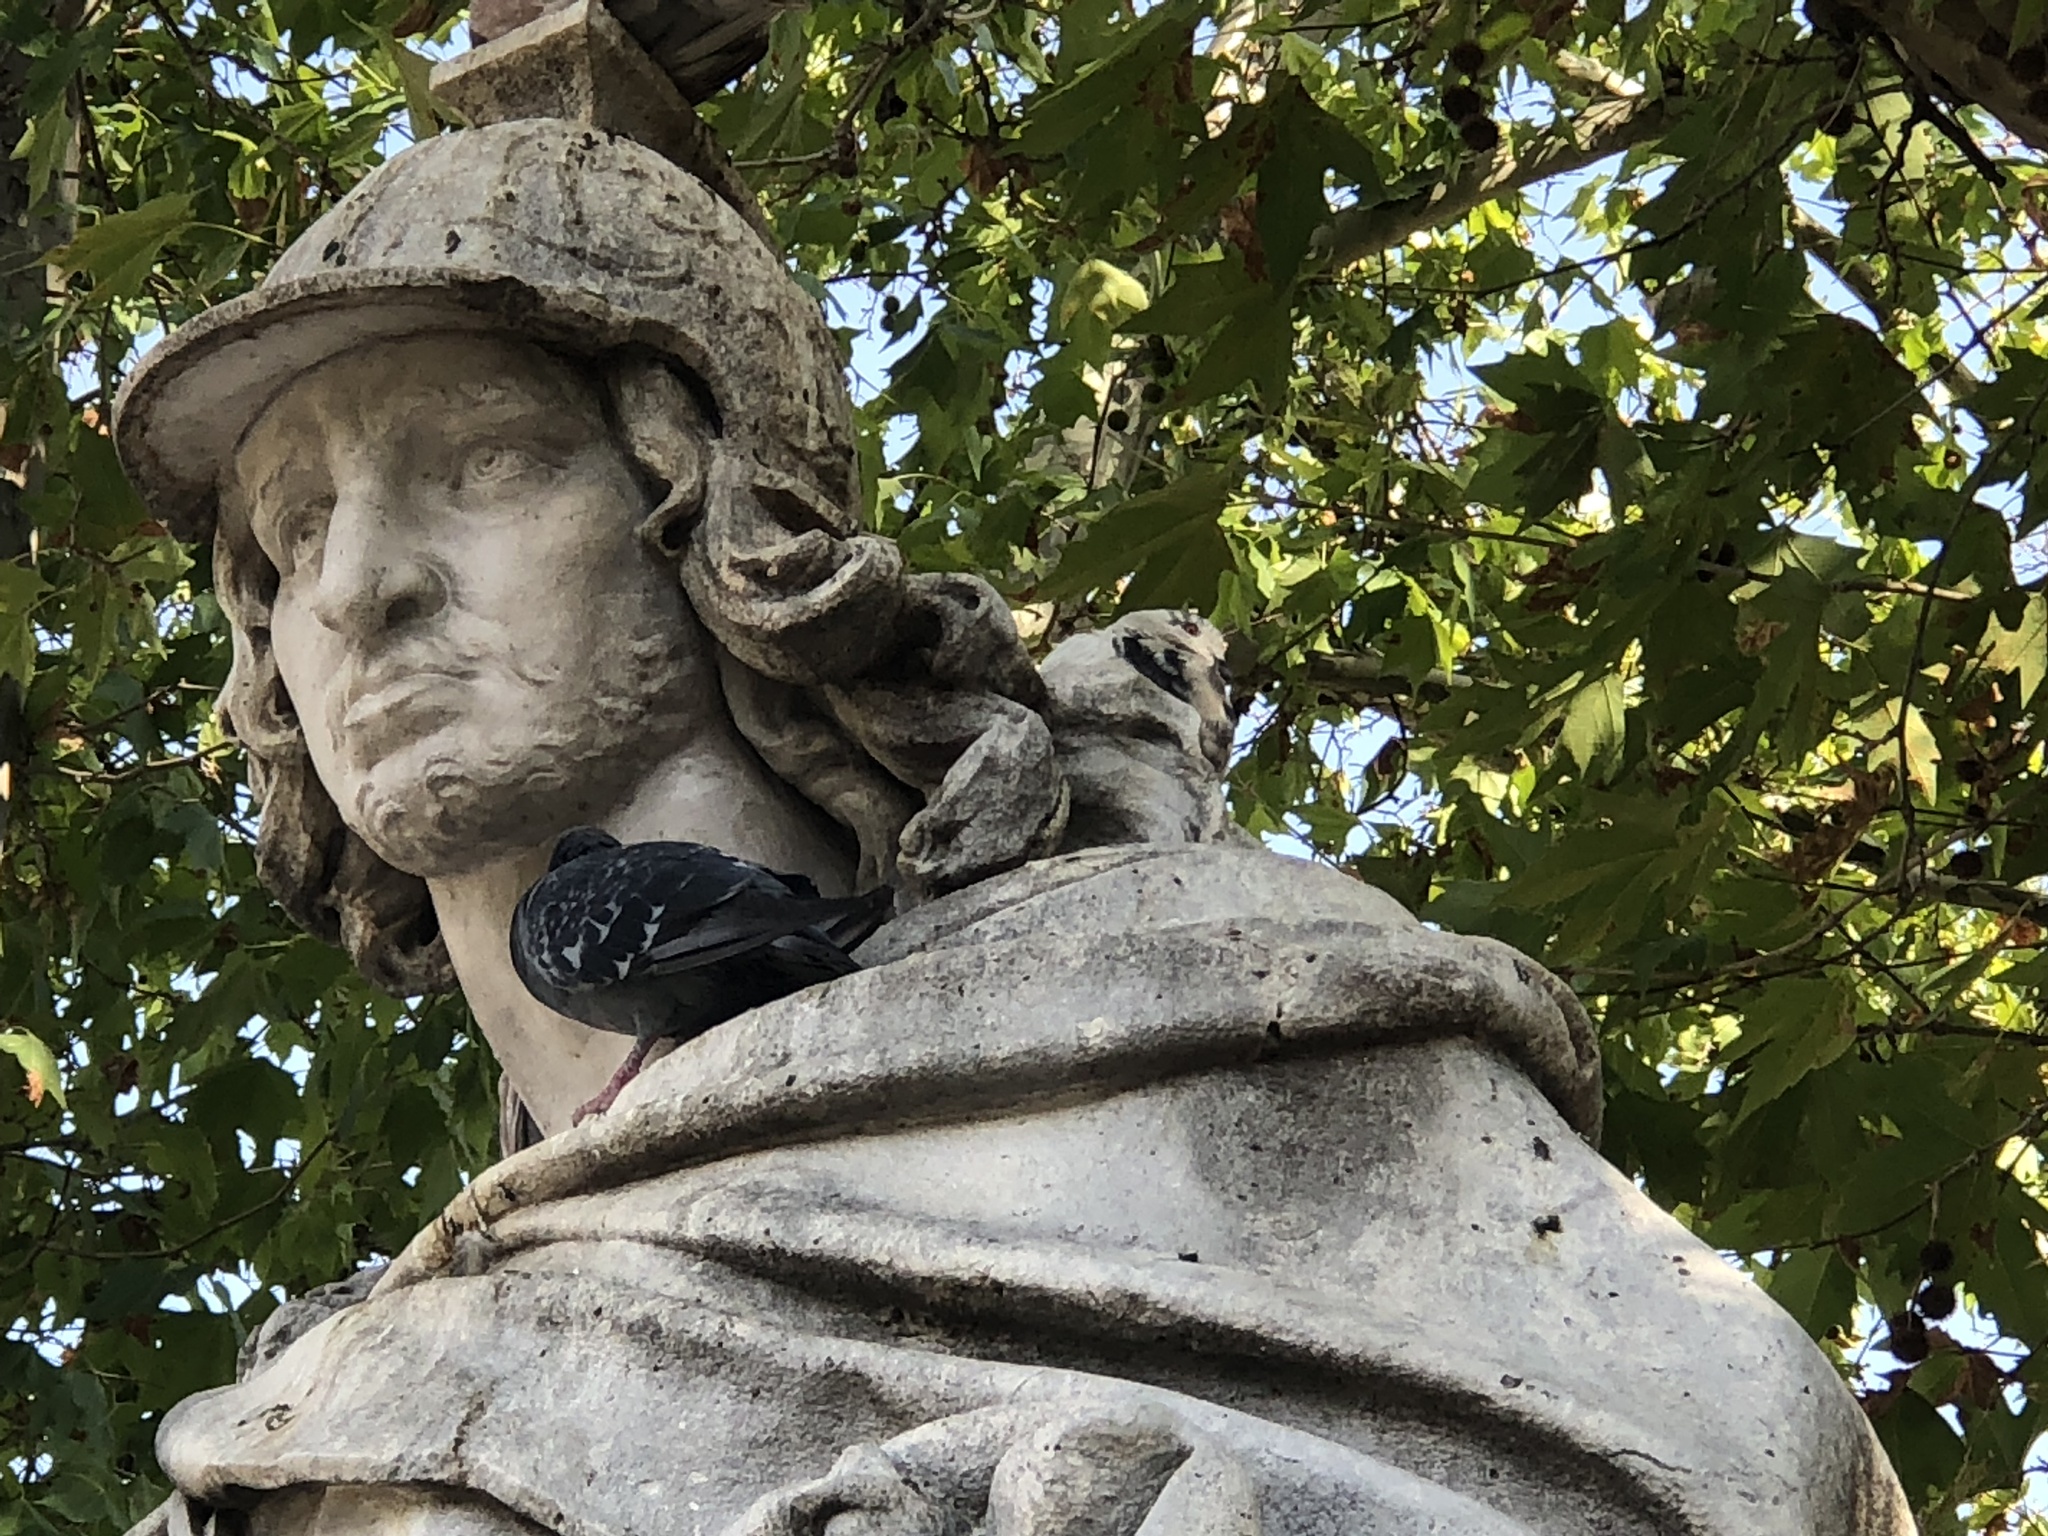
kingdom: Animalia
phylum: Chordata
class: Aves
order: Columbiformes
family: Columbidae
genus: Columba
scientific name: Columba livia
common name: Rock pigeon
